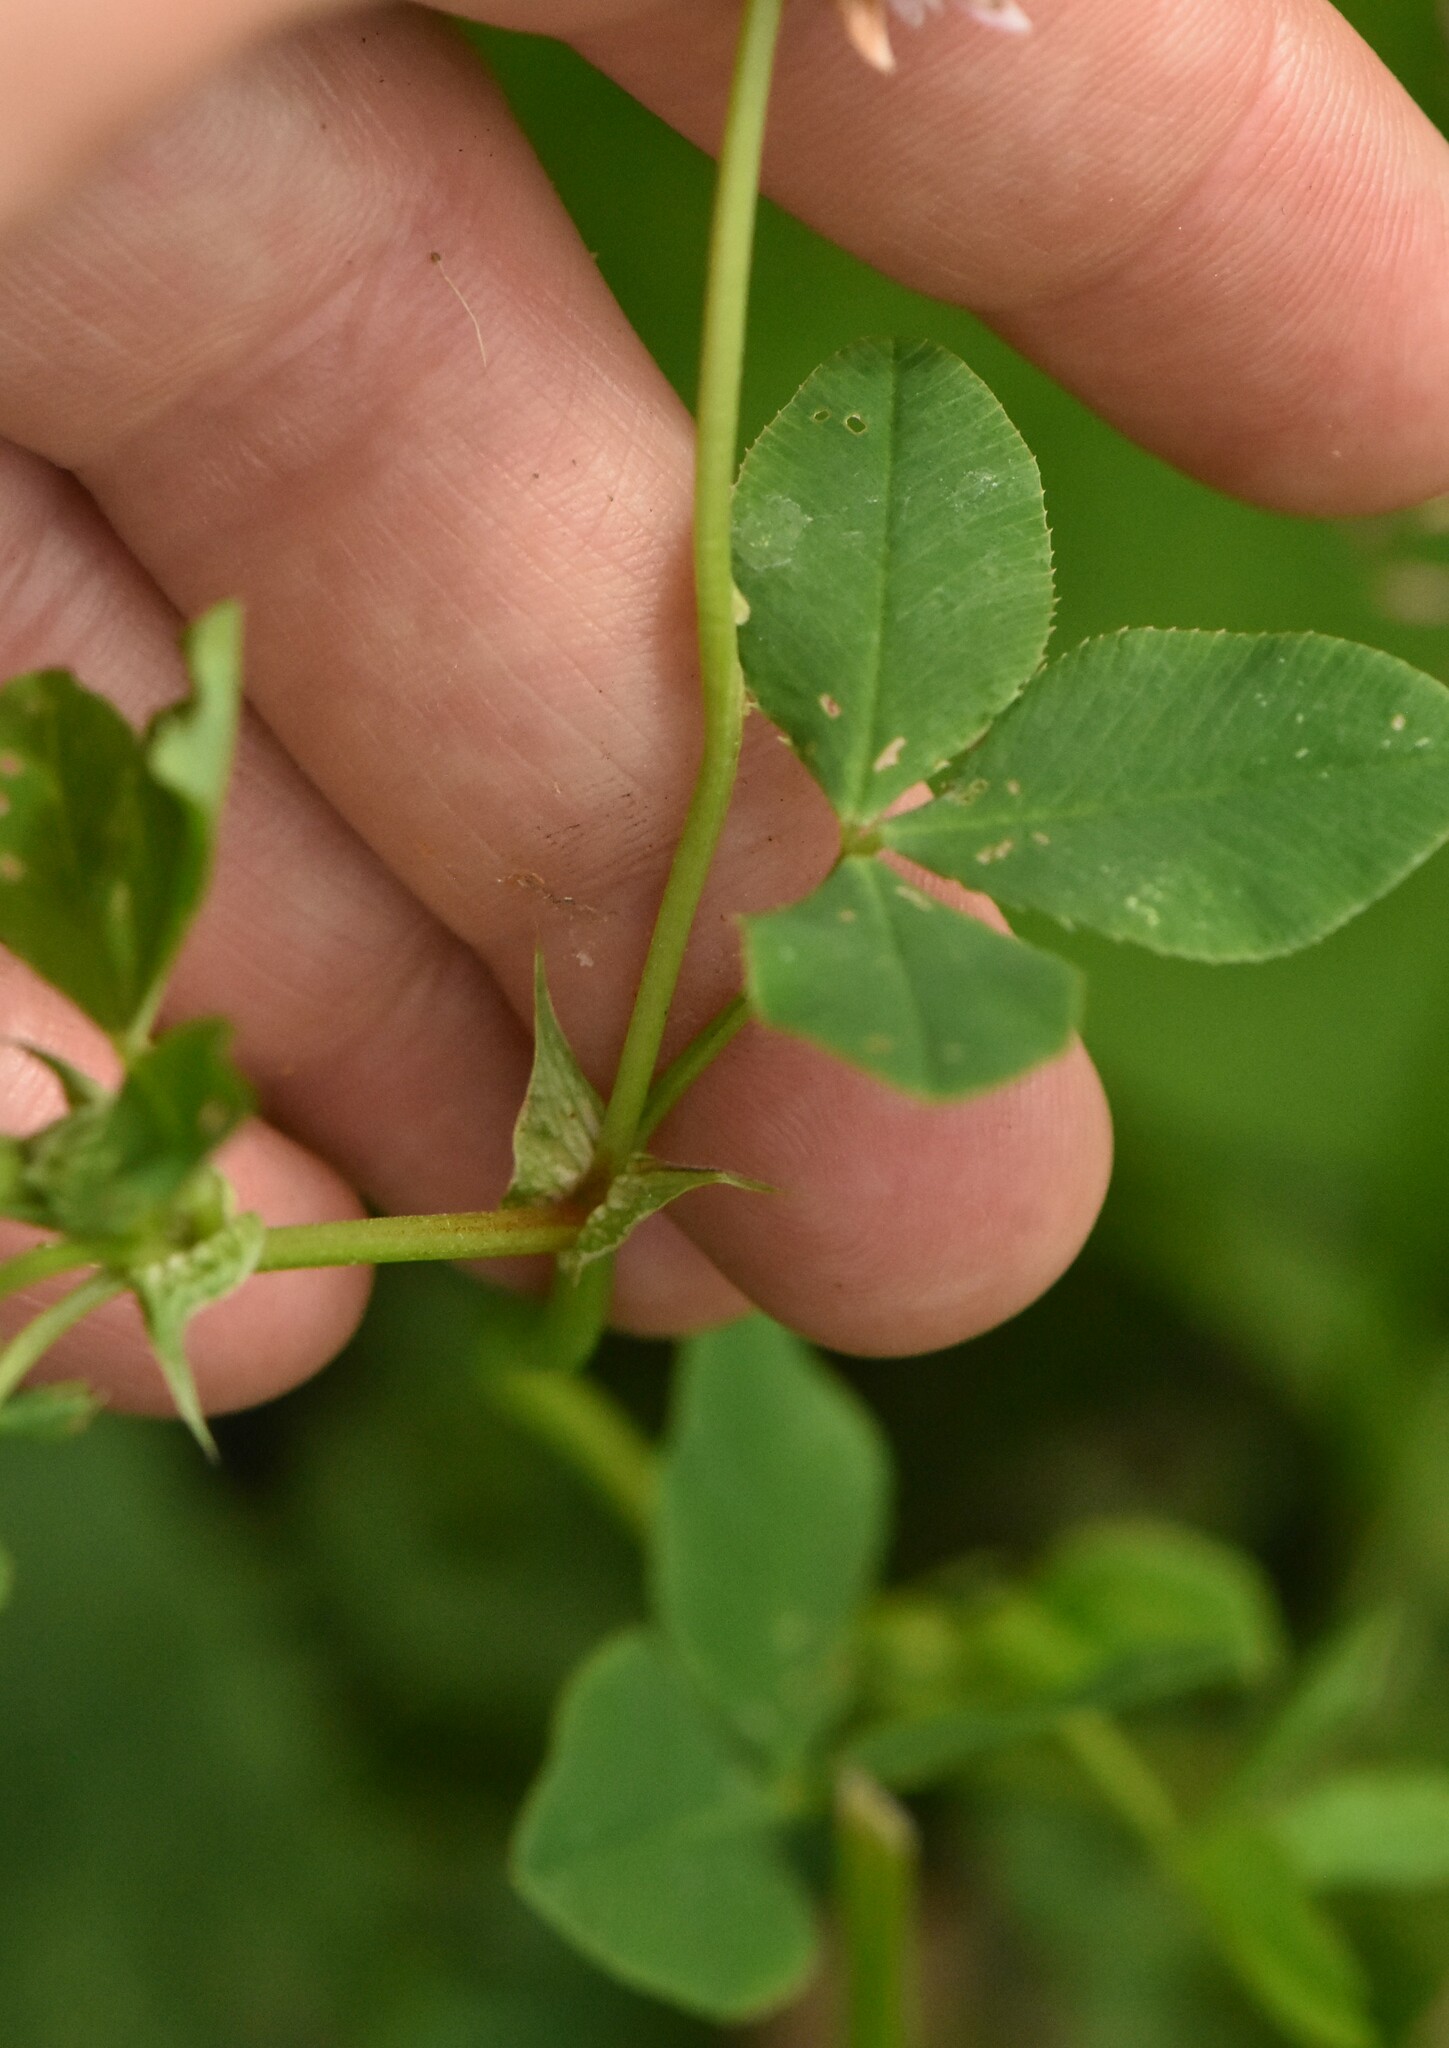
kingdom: Plantae
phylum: Tracheophyta
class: Magnoliopsida
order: Fabales
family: Fabaceae
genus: Trifolium
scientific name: Trifolium hybridum
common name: Alsike clover
